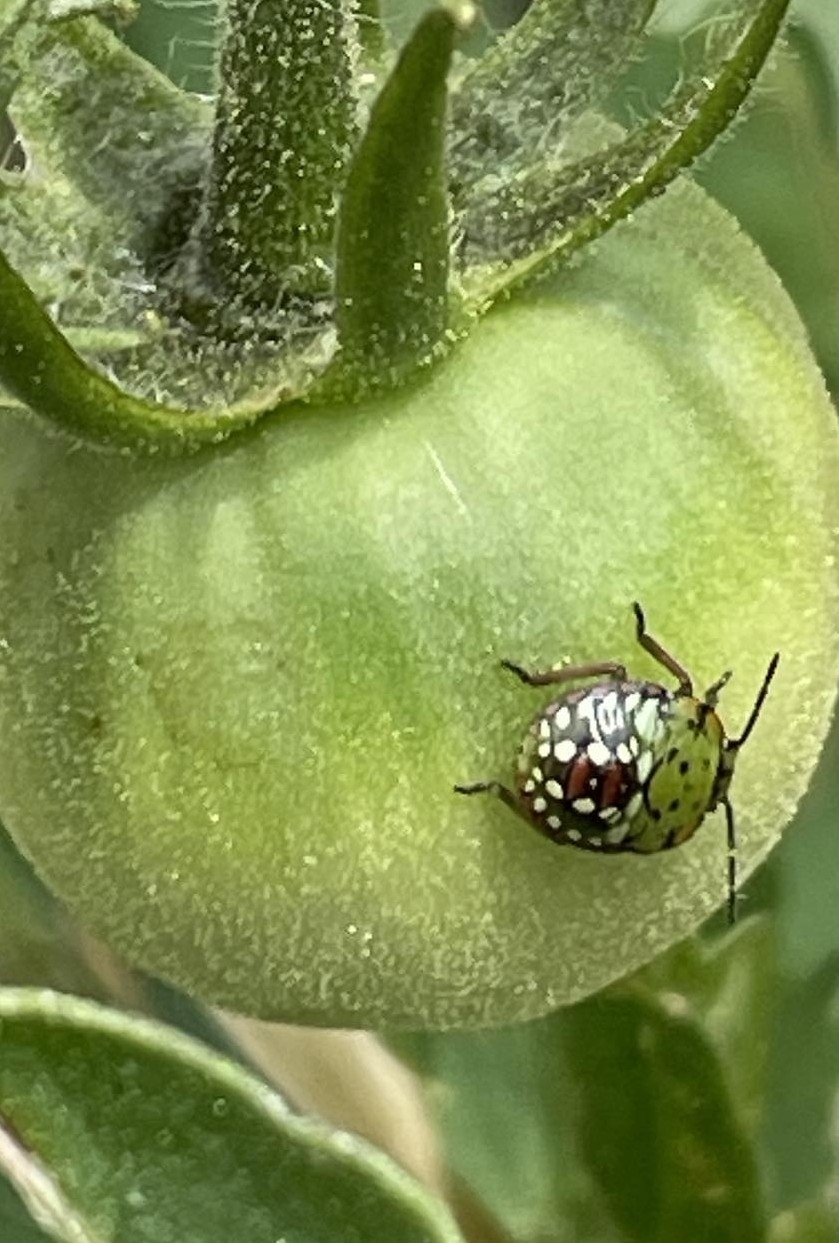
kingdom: Animalia
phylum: Arthropoda
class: Insecta
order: Hemiptera
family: Pentatomidae
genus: Nezara
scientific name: Nezara viridula
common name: Southern green stink bug
